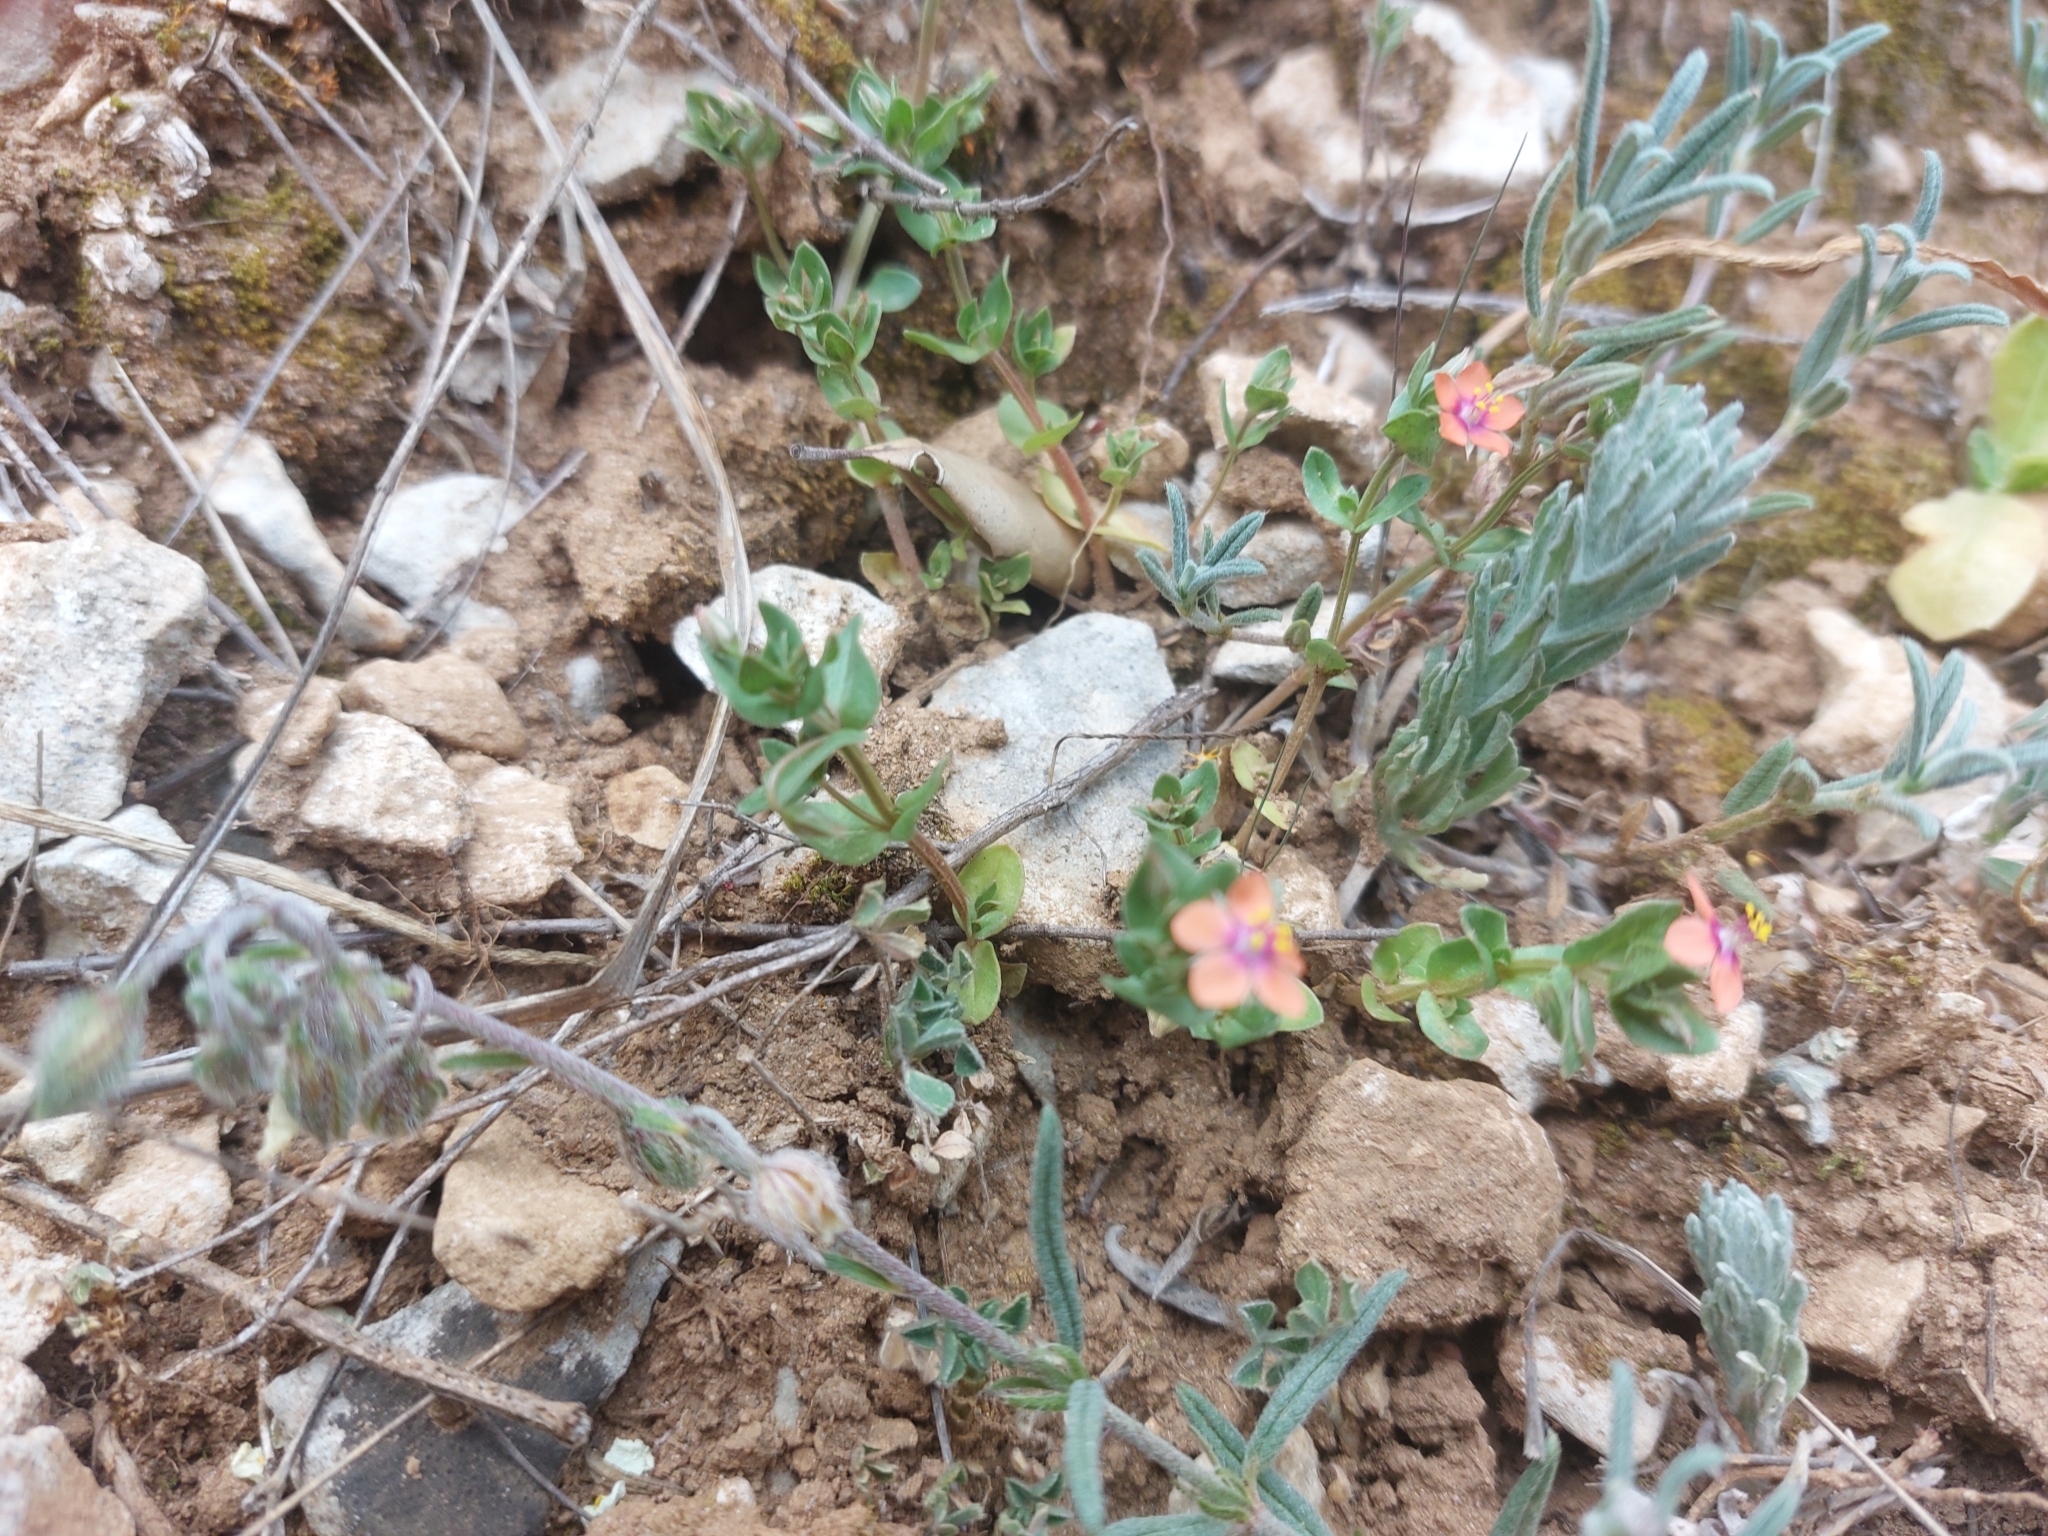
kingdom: Plantae
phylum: Tracheophyta
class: Magnoliopsida
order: Ericales
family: Primulaceae
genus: Lysimachia
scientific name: Lysimachia arvensis
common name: Scarlet pimpernel
